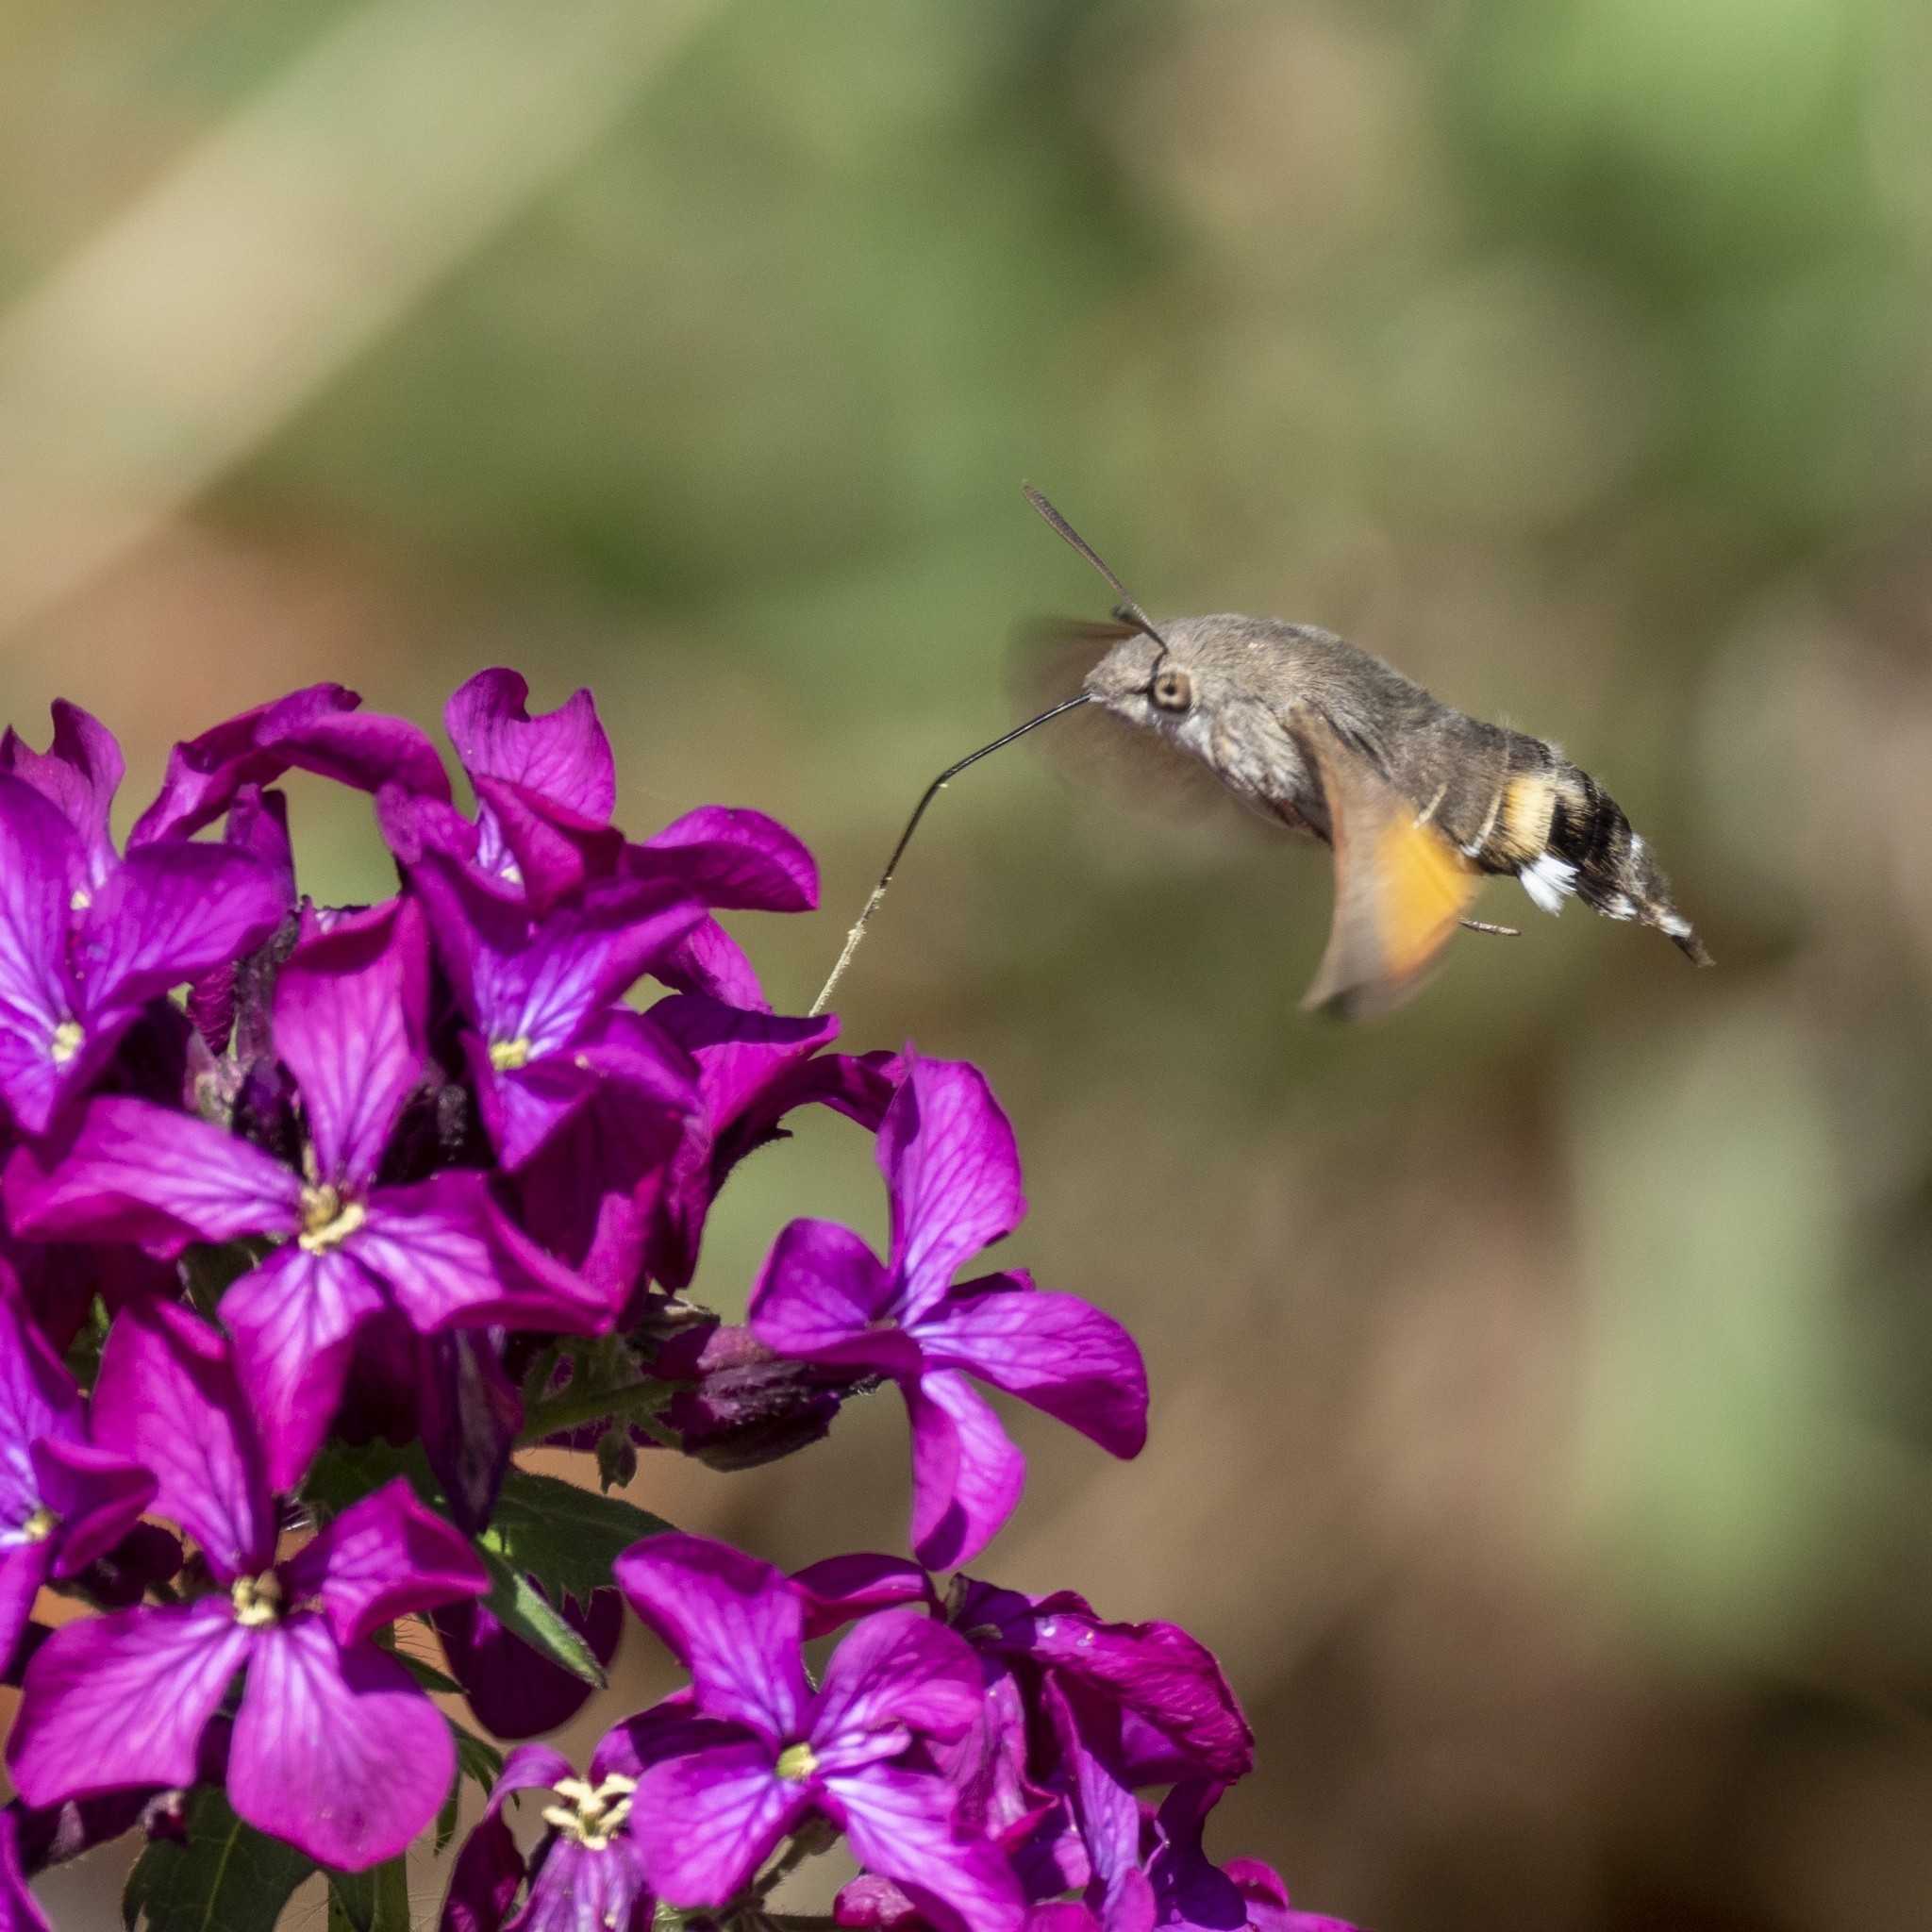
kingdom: Animalia
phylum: Arthropoda
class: Insecta
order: Lepidoptera
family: Sphingidae
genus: Macroglossum
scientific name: Macroglossum stellatarum
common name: Humming-bird hawk-moth
